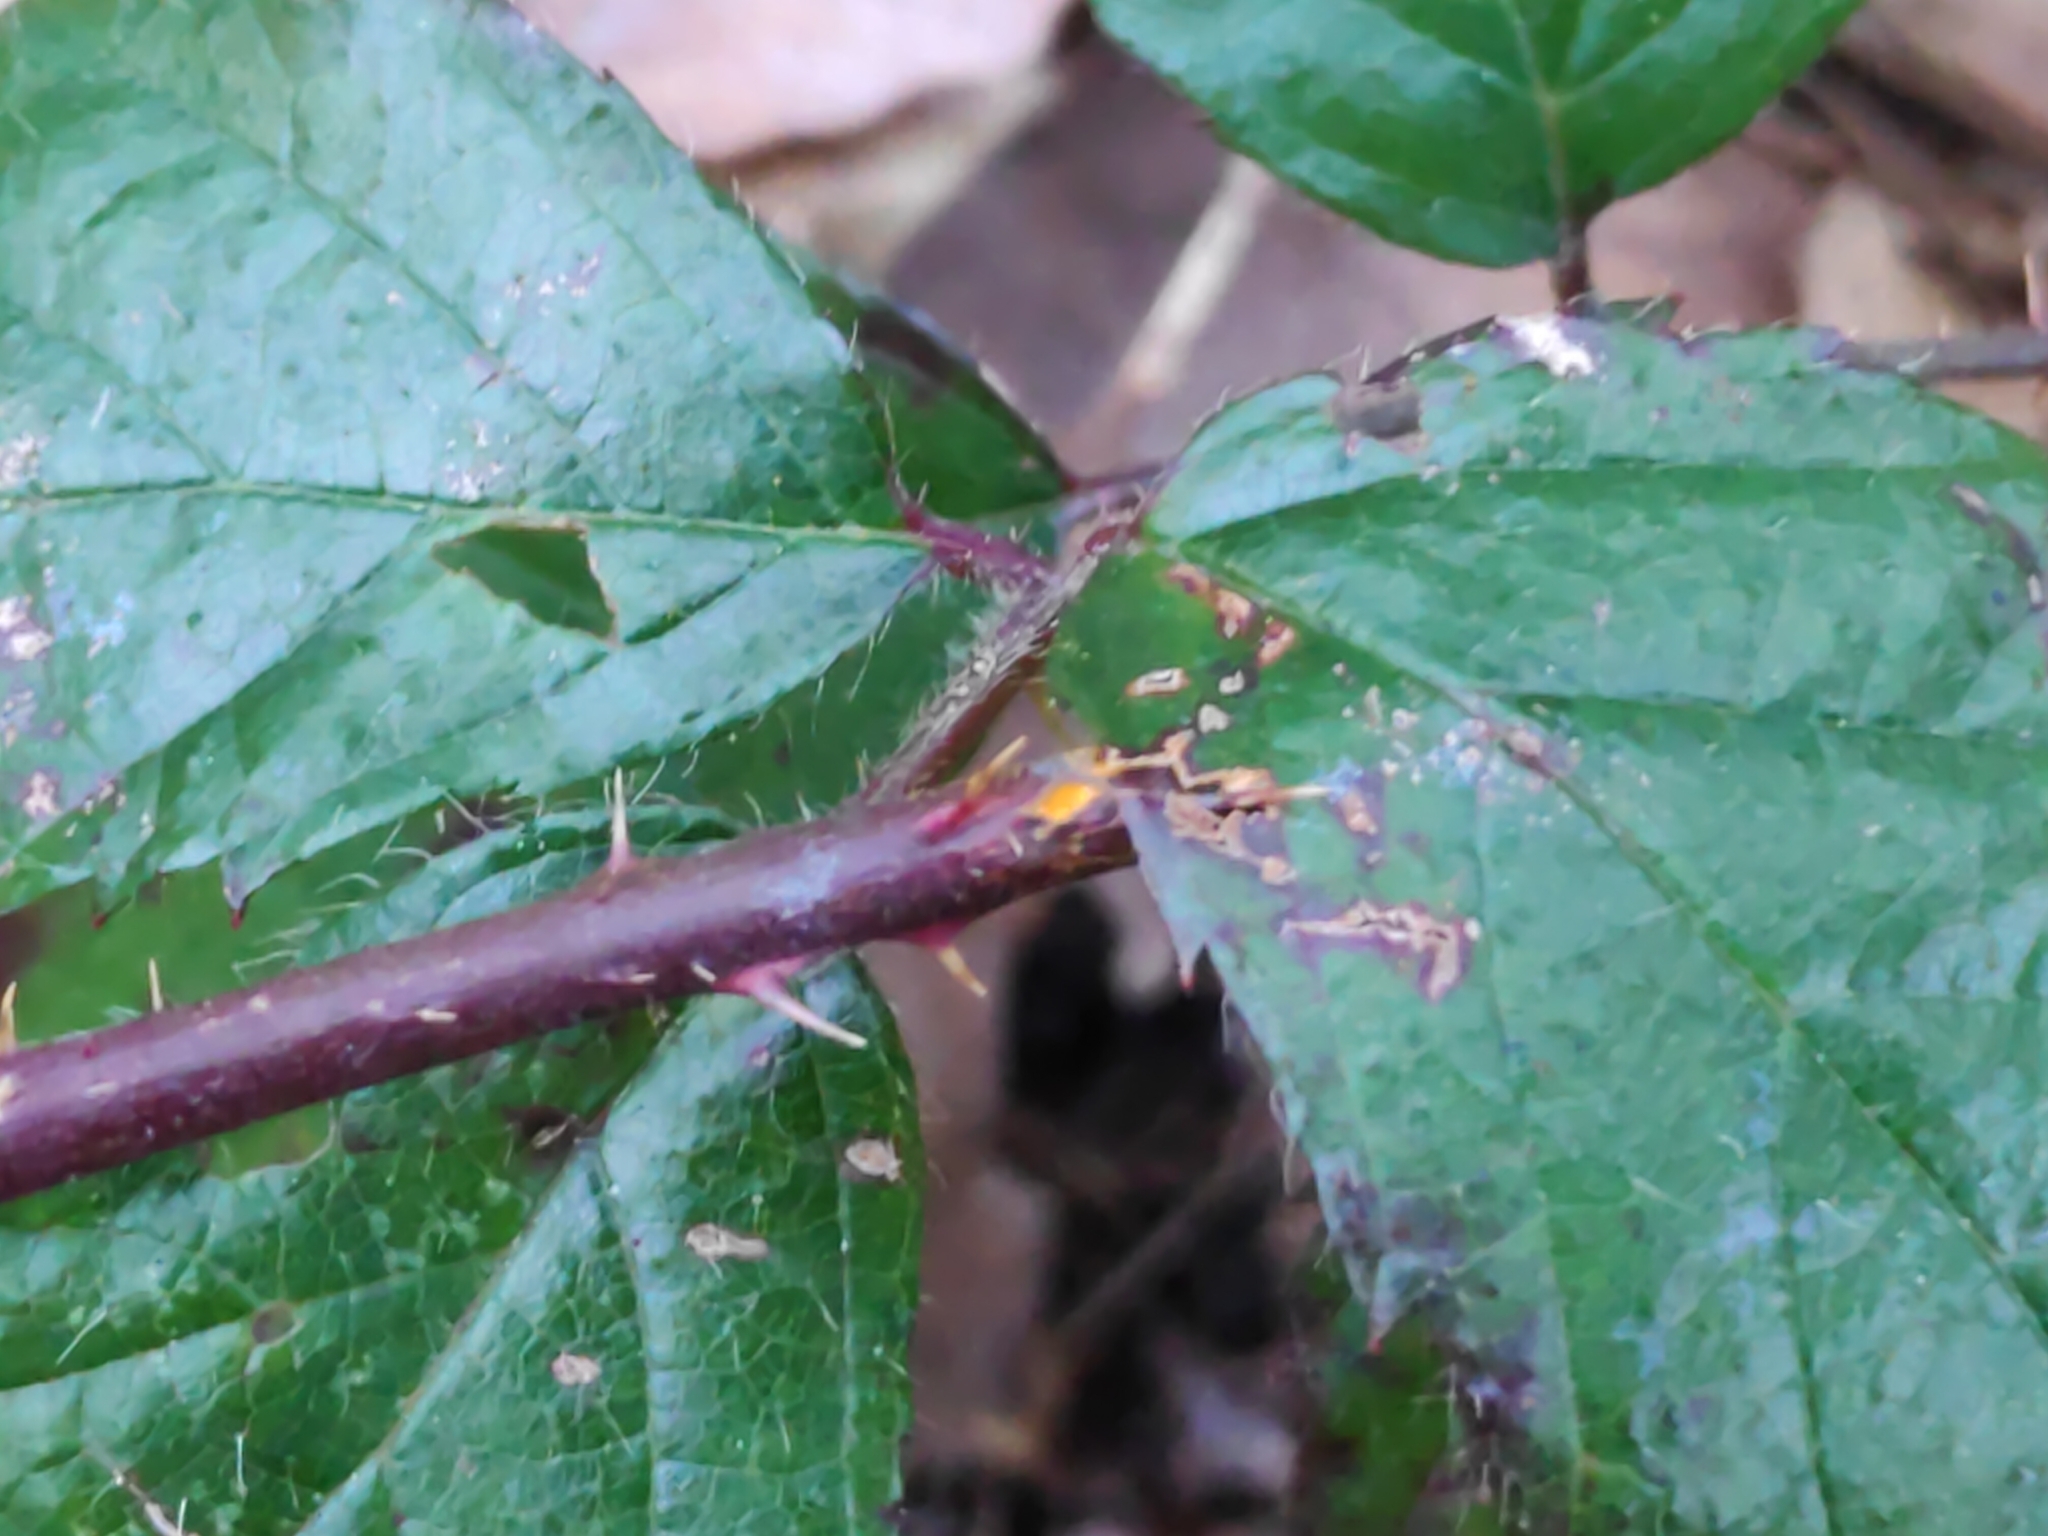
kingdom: Fungi
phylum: Basidiomycota
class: Pucciniomycetes
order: Pucciniales
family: Phragmidiaceae
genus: Phragmidium
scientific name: Phragmidium
